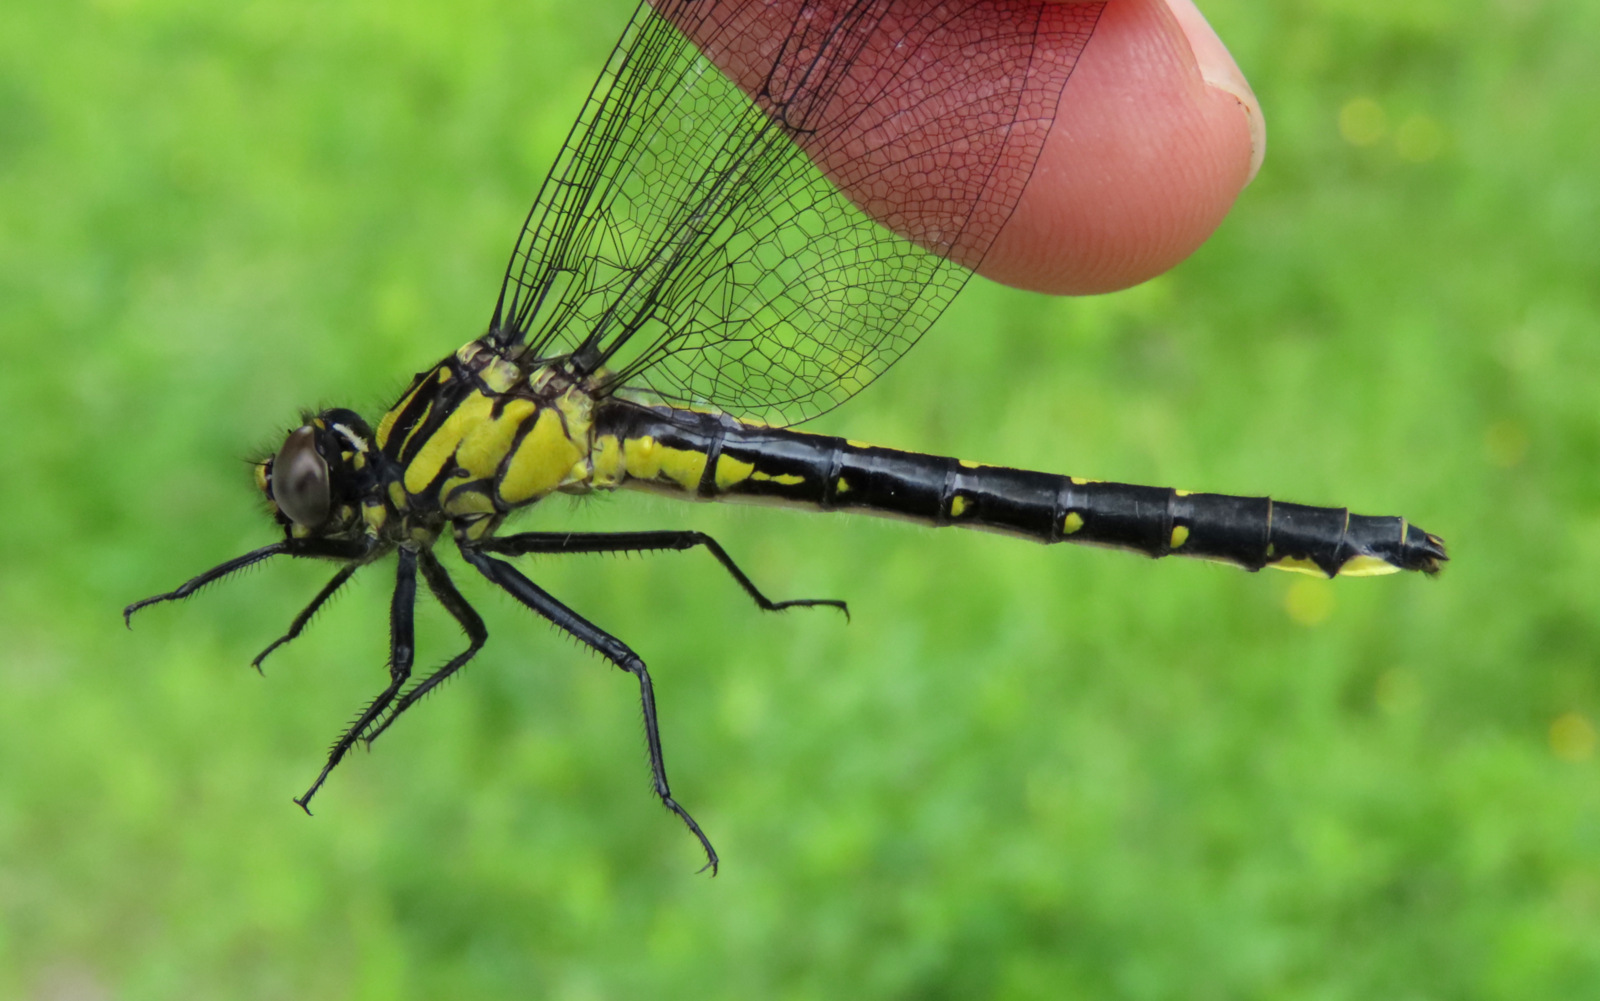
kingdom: Animalia
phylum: Arthropoda
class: Insecta
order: Odonata
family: Gomphidae
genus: Hylogomphus
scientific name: Hylogomphus adelphus
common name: Mustached clubtail
